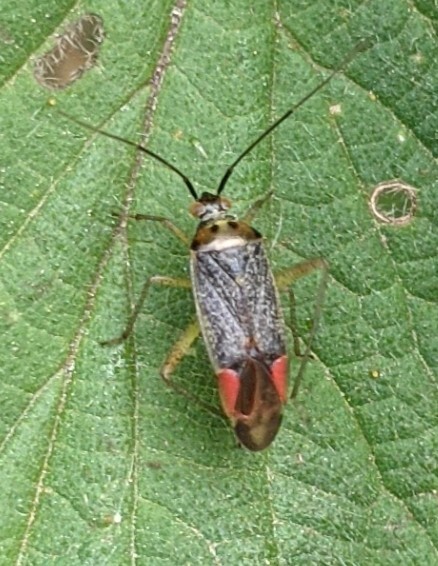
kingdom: Animalia
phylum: Arthropoda
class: Insecta
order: Hemiptera
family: Miridae
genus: Closterotomus
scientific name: Closterotomus trivialis
